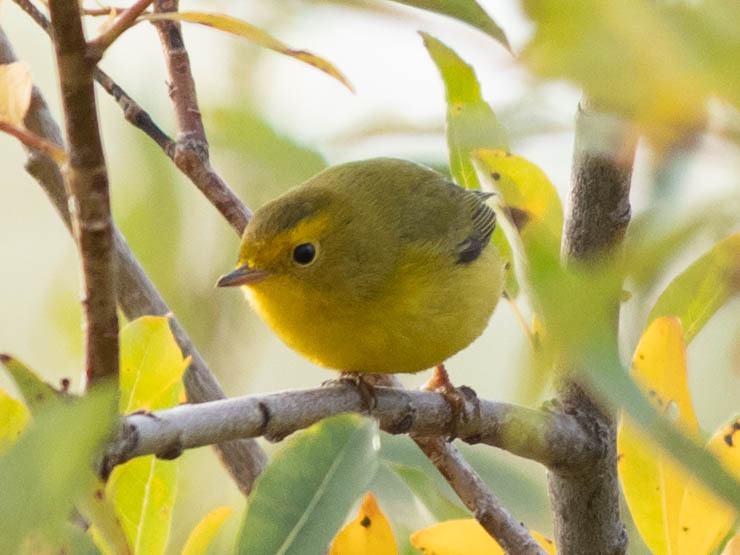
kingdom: Animalia
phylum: Chordata
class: Aves
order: Passeriformes
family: Parulidae
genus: Cardellina
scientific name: Cardellina pusilla
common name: Wilson's warbler
